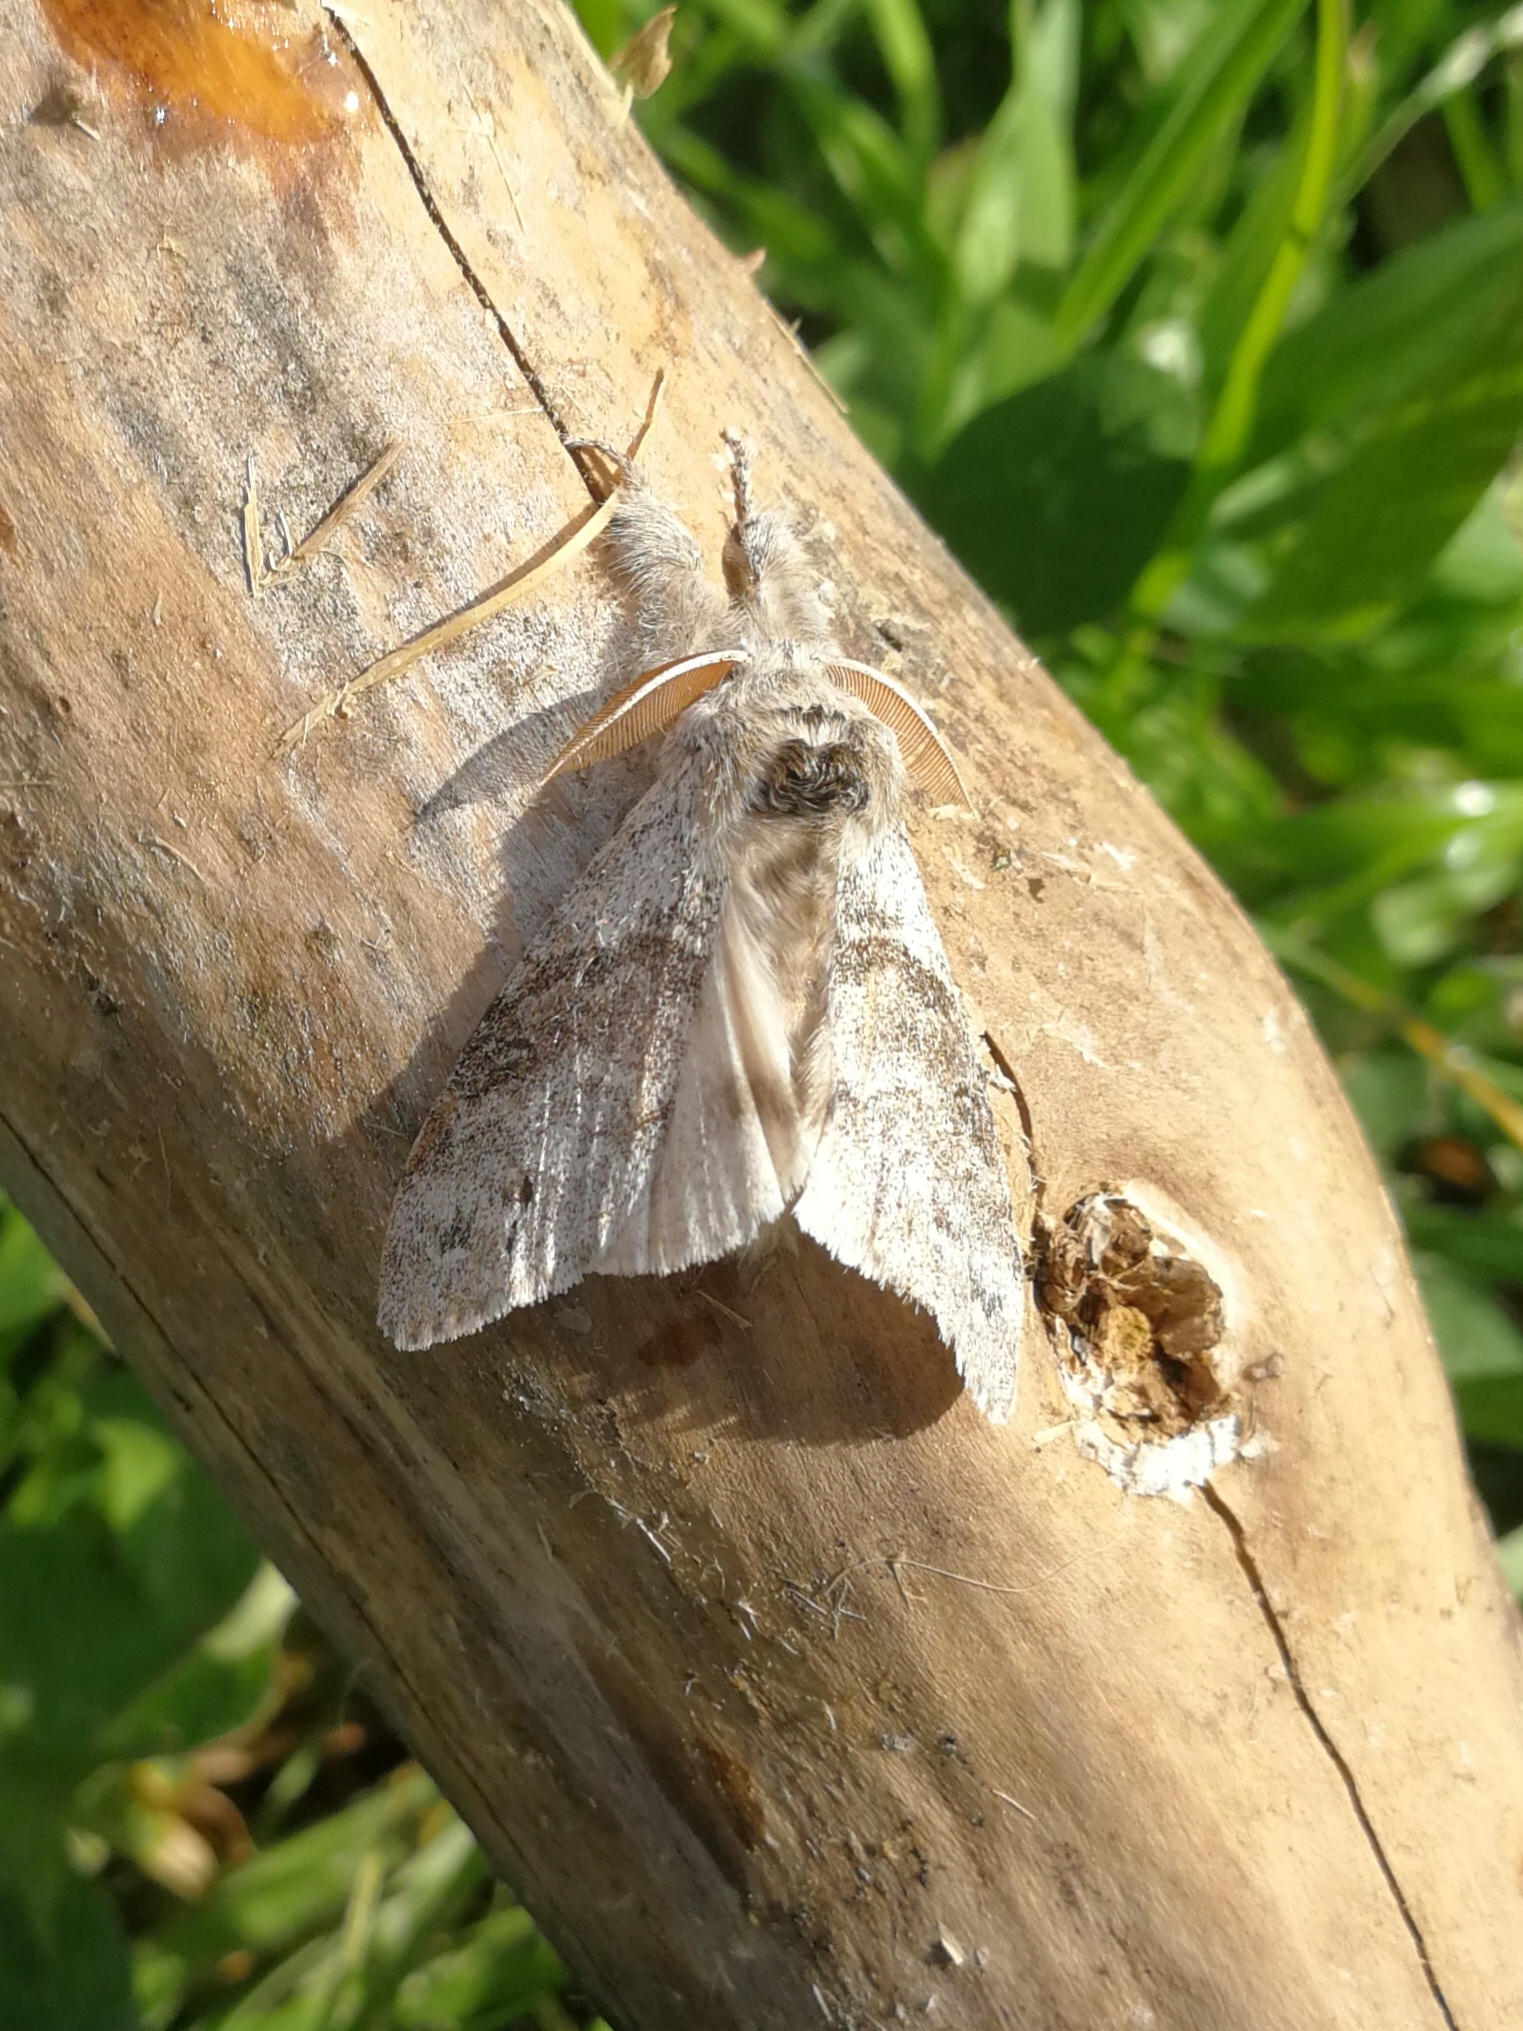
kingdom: Animalia
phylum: Arthropoda
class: Insecta
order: Lepidoptera
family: Erebidae
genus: Calliteara
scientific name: Calliteara pudibunda
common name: Pale tussock
